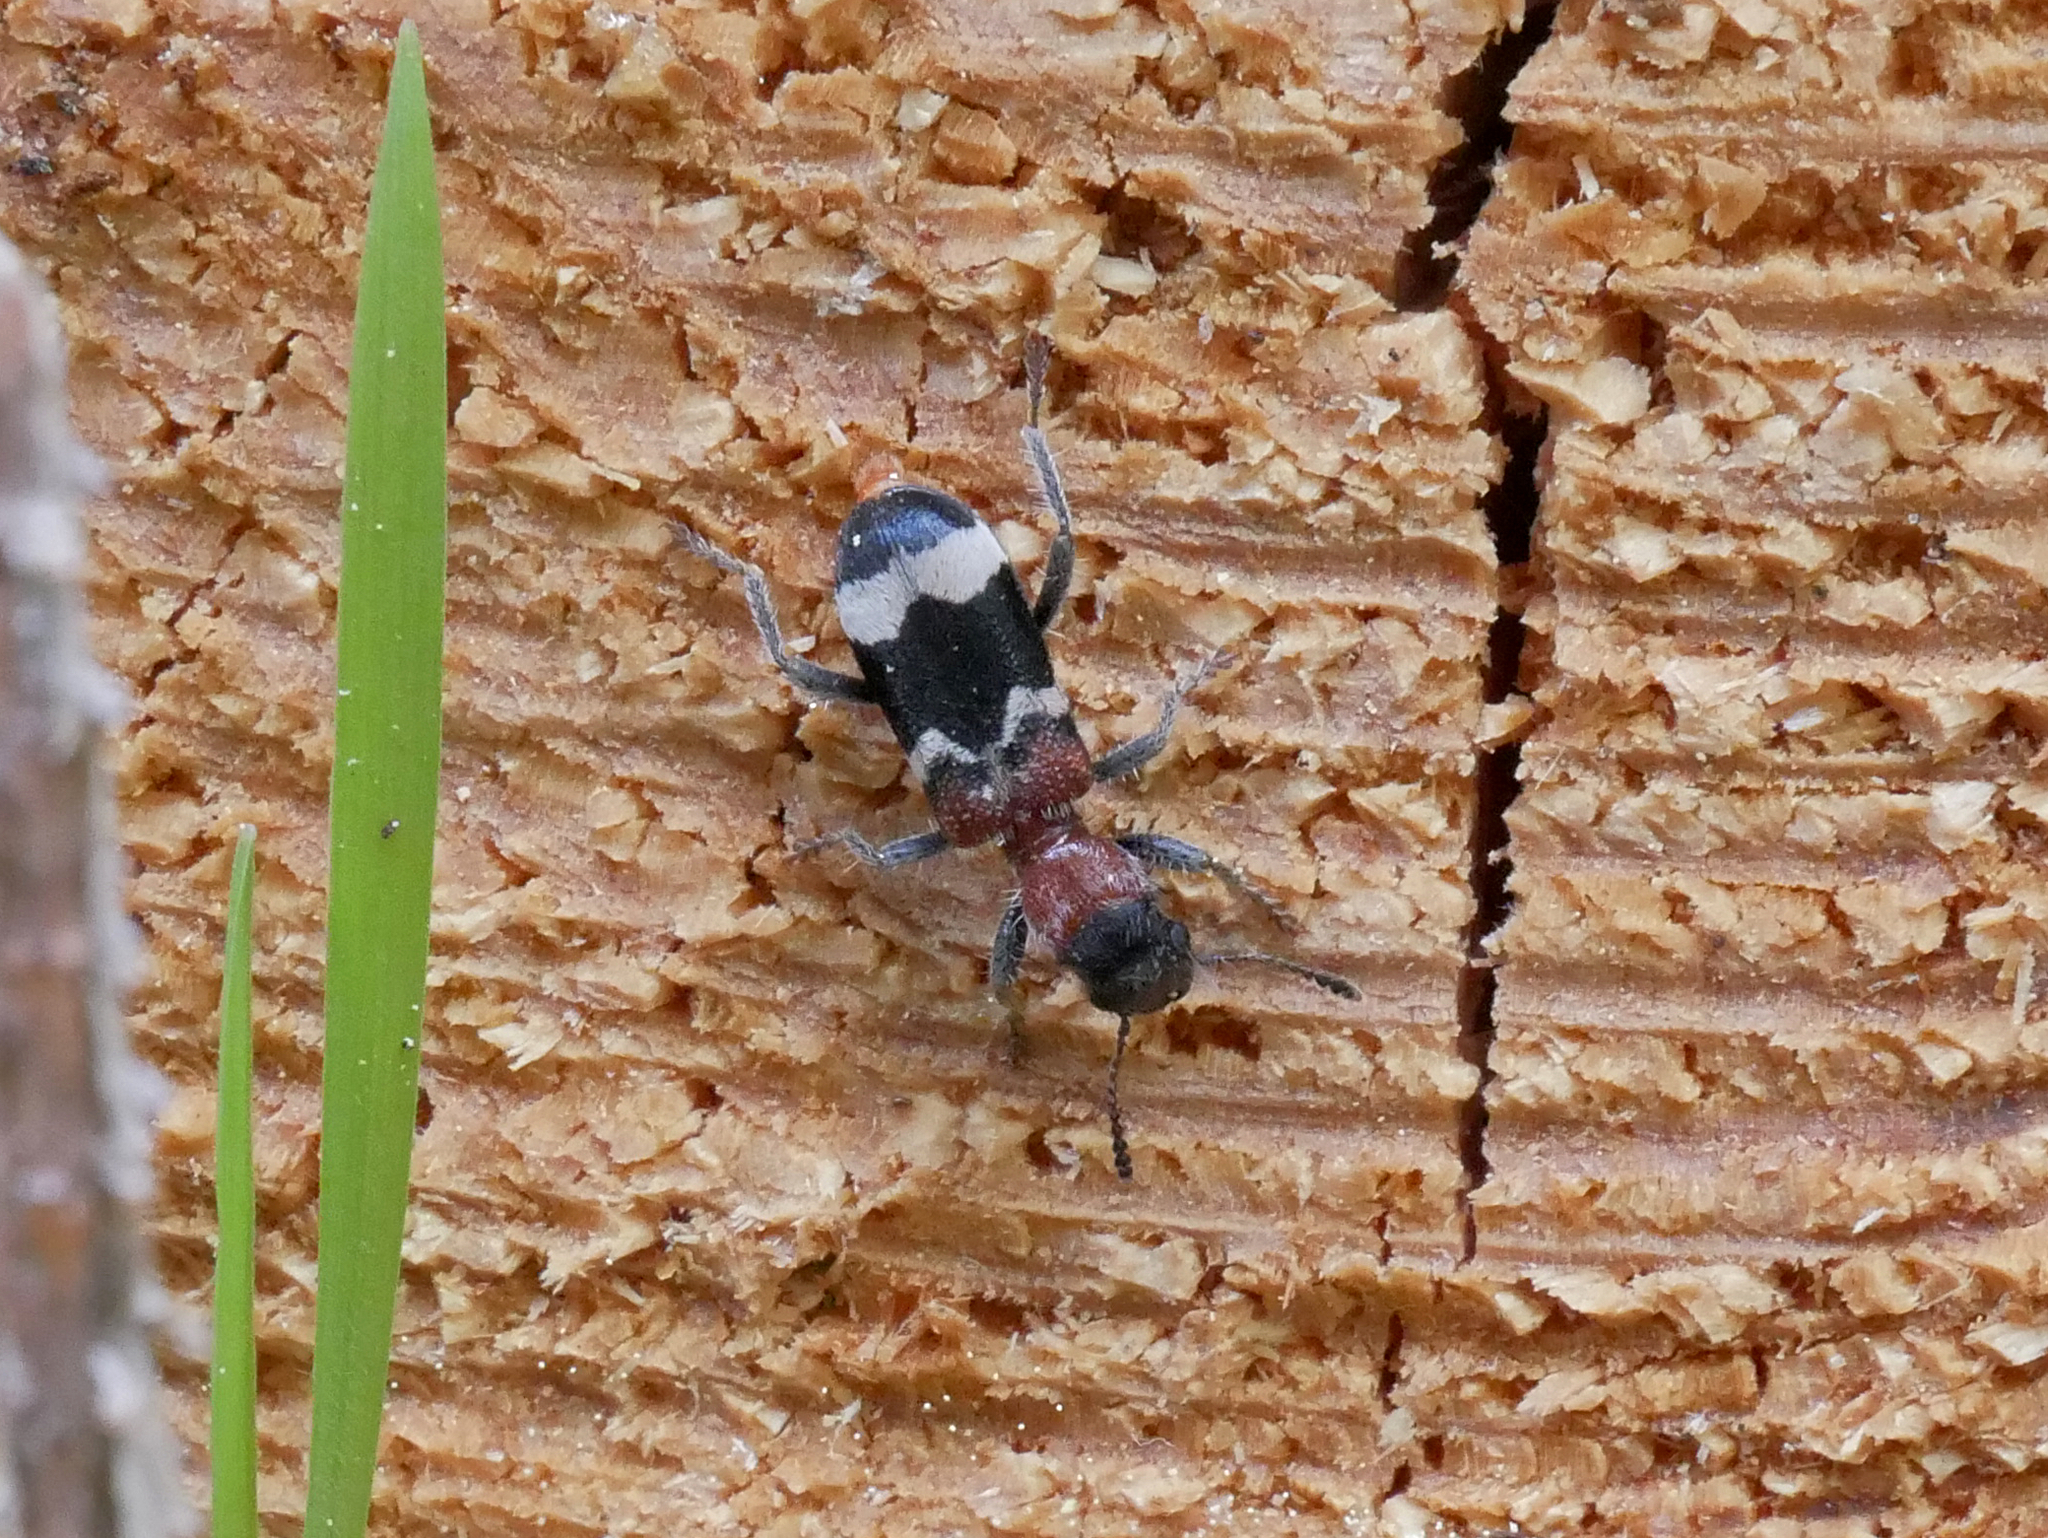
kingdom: Animalia
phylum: Arthropoda
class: Insecta
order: Coleoptera
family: Cleridae
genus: Thanasimus
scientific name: Thanasimus formicarius
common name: Ant beetle
